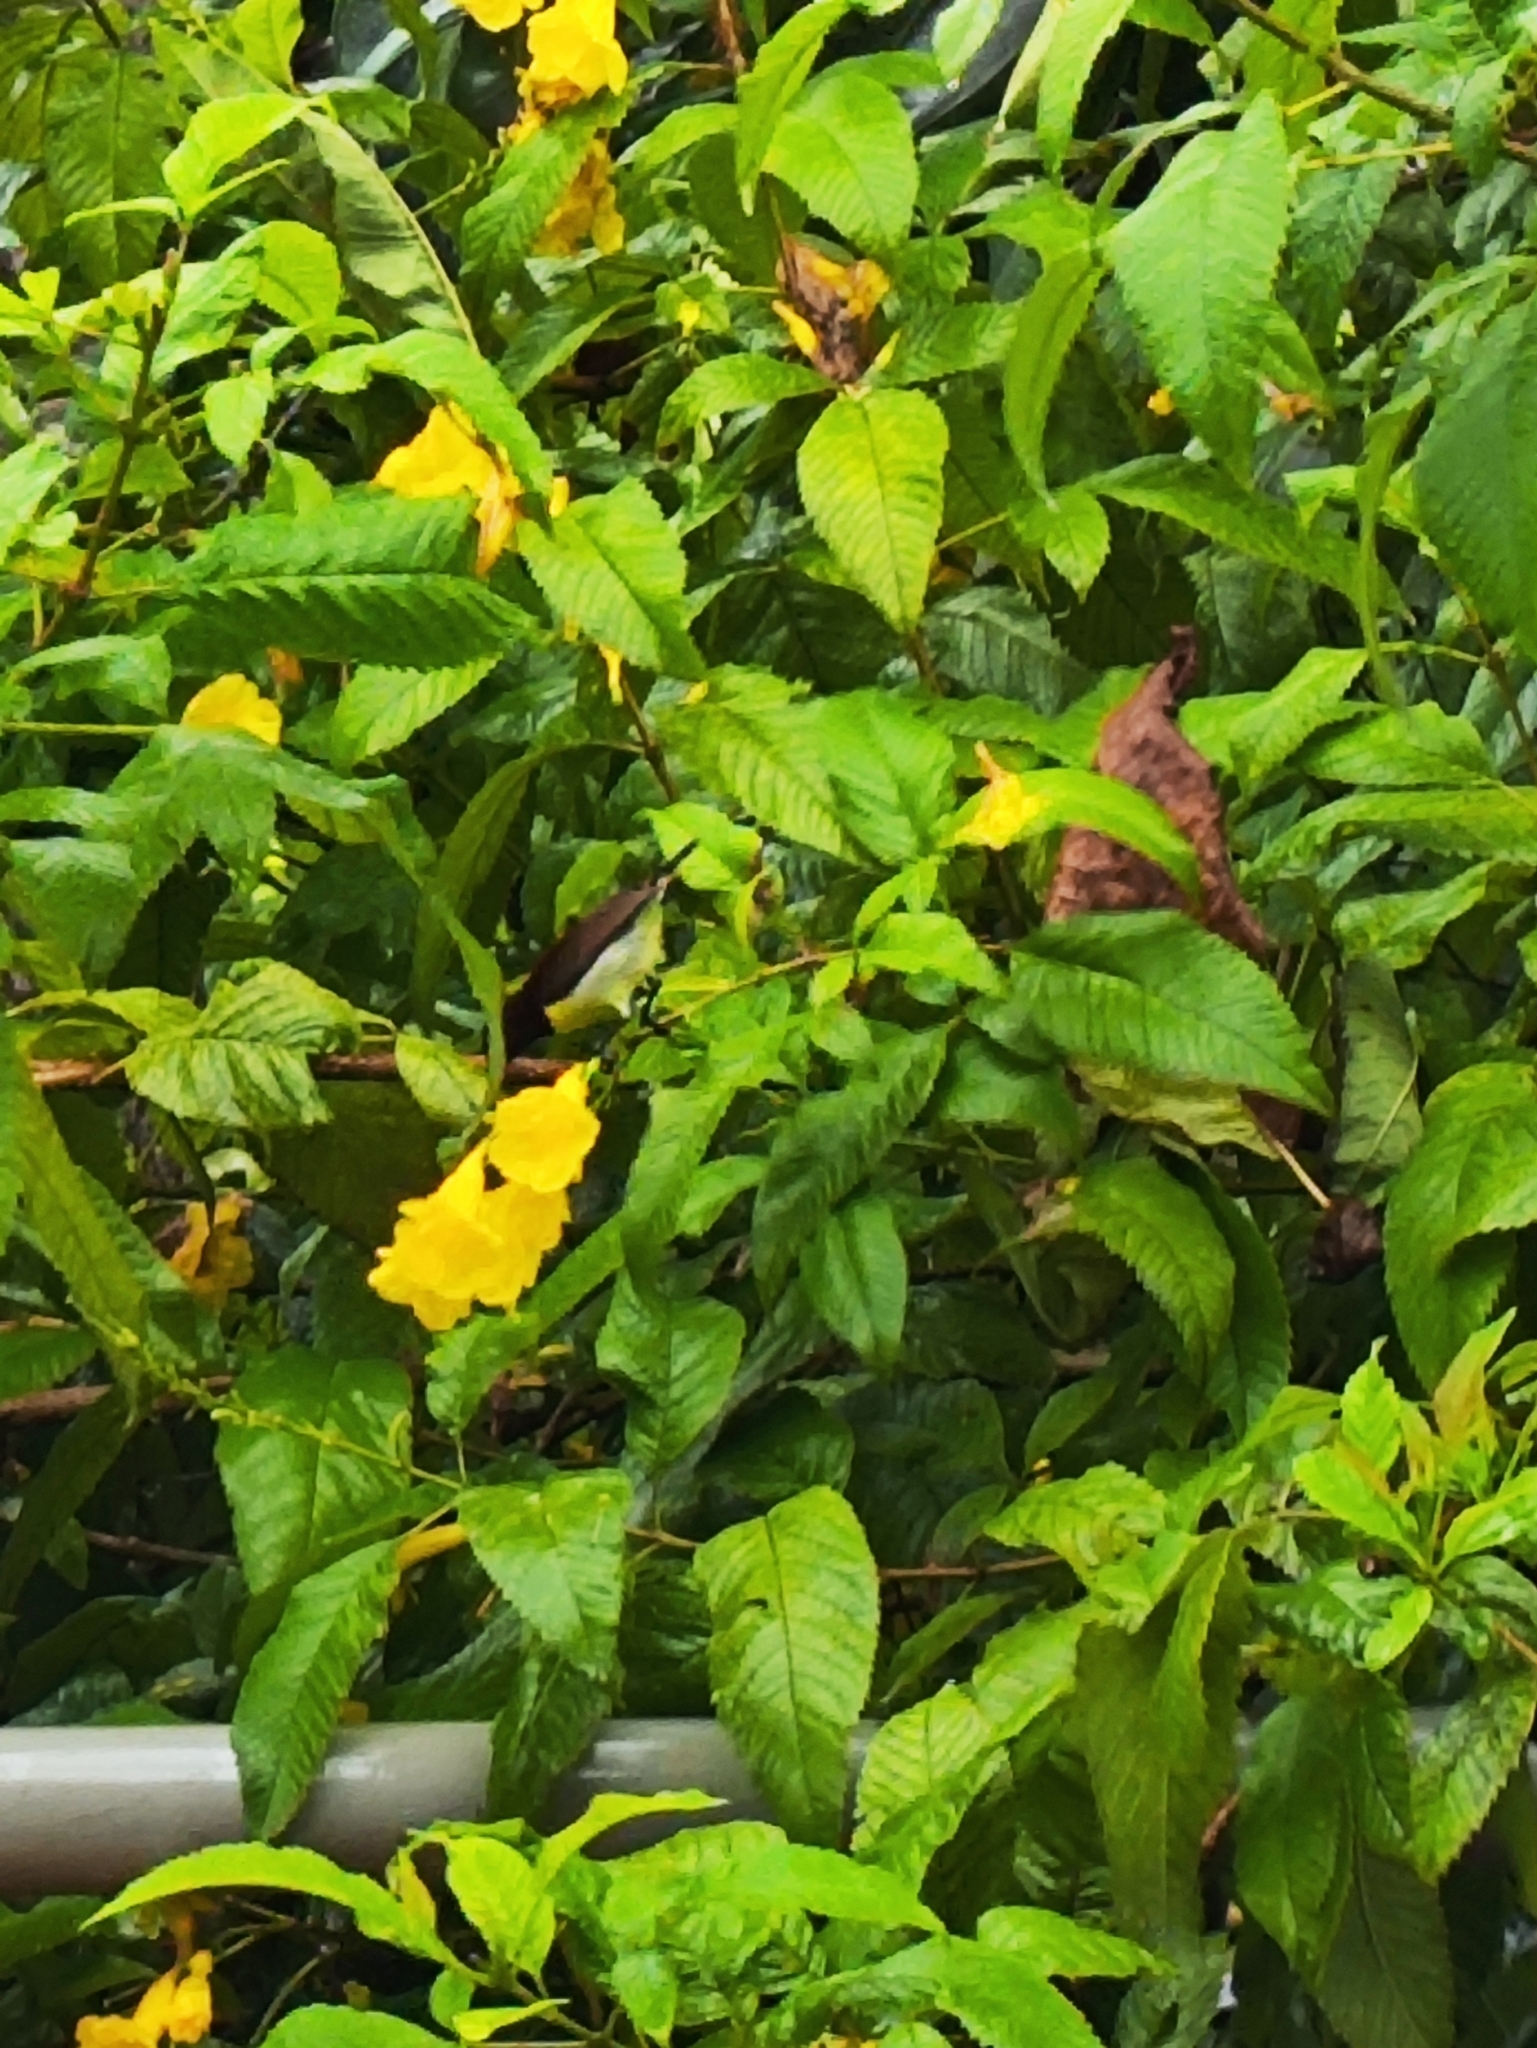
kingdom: Animalia
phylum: Chordata
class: Aves
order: Passeriformes
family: Nectariniidae
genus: Leptocoma
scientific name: Leptocoma zeylonica
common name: Purple-rumped sunbird
